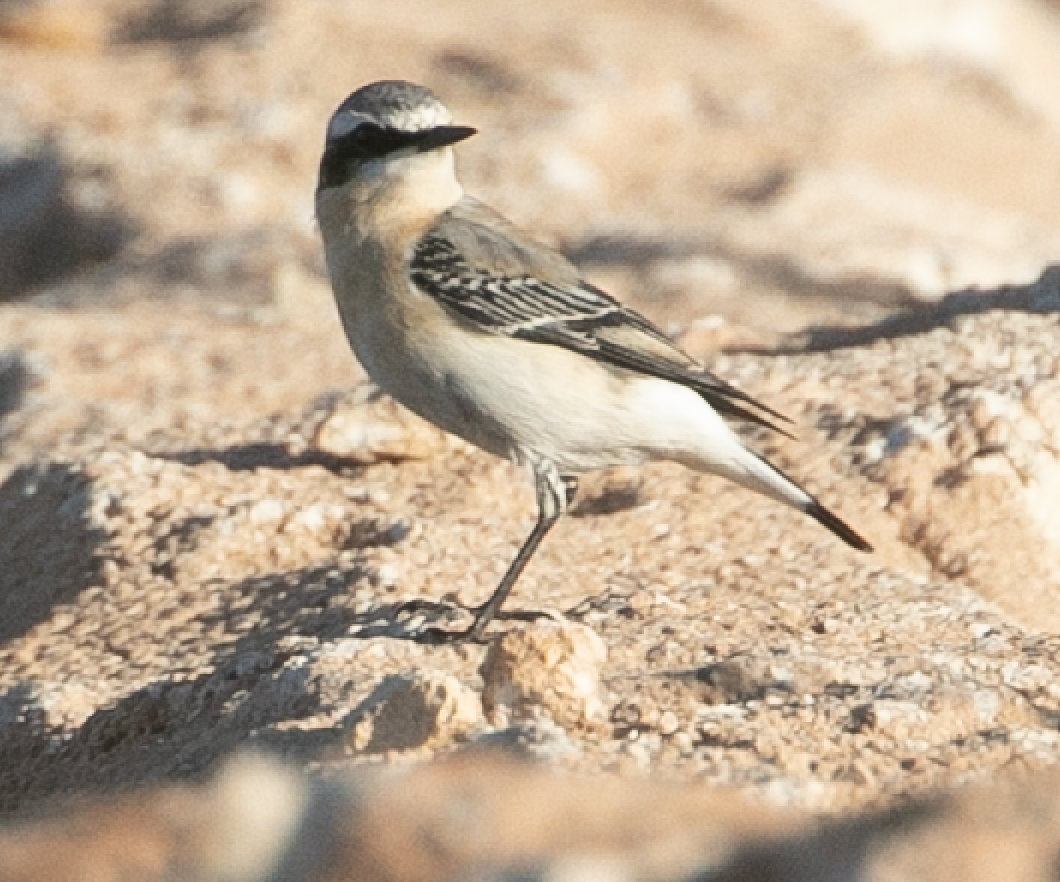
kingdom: Animalia
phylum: Chordata
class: Aves
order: Passeriformes
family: Muscicapidae
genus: Oenanthe
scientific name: Oenanthe oenanthe
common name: Northern wheatear
